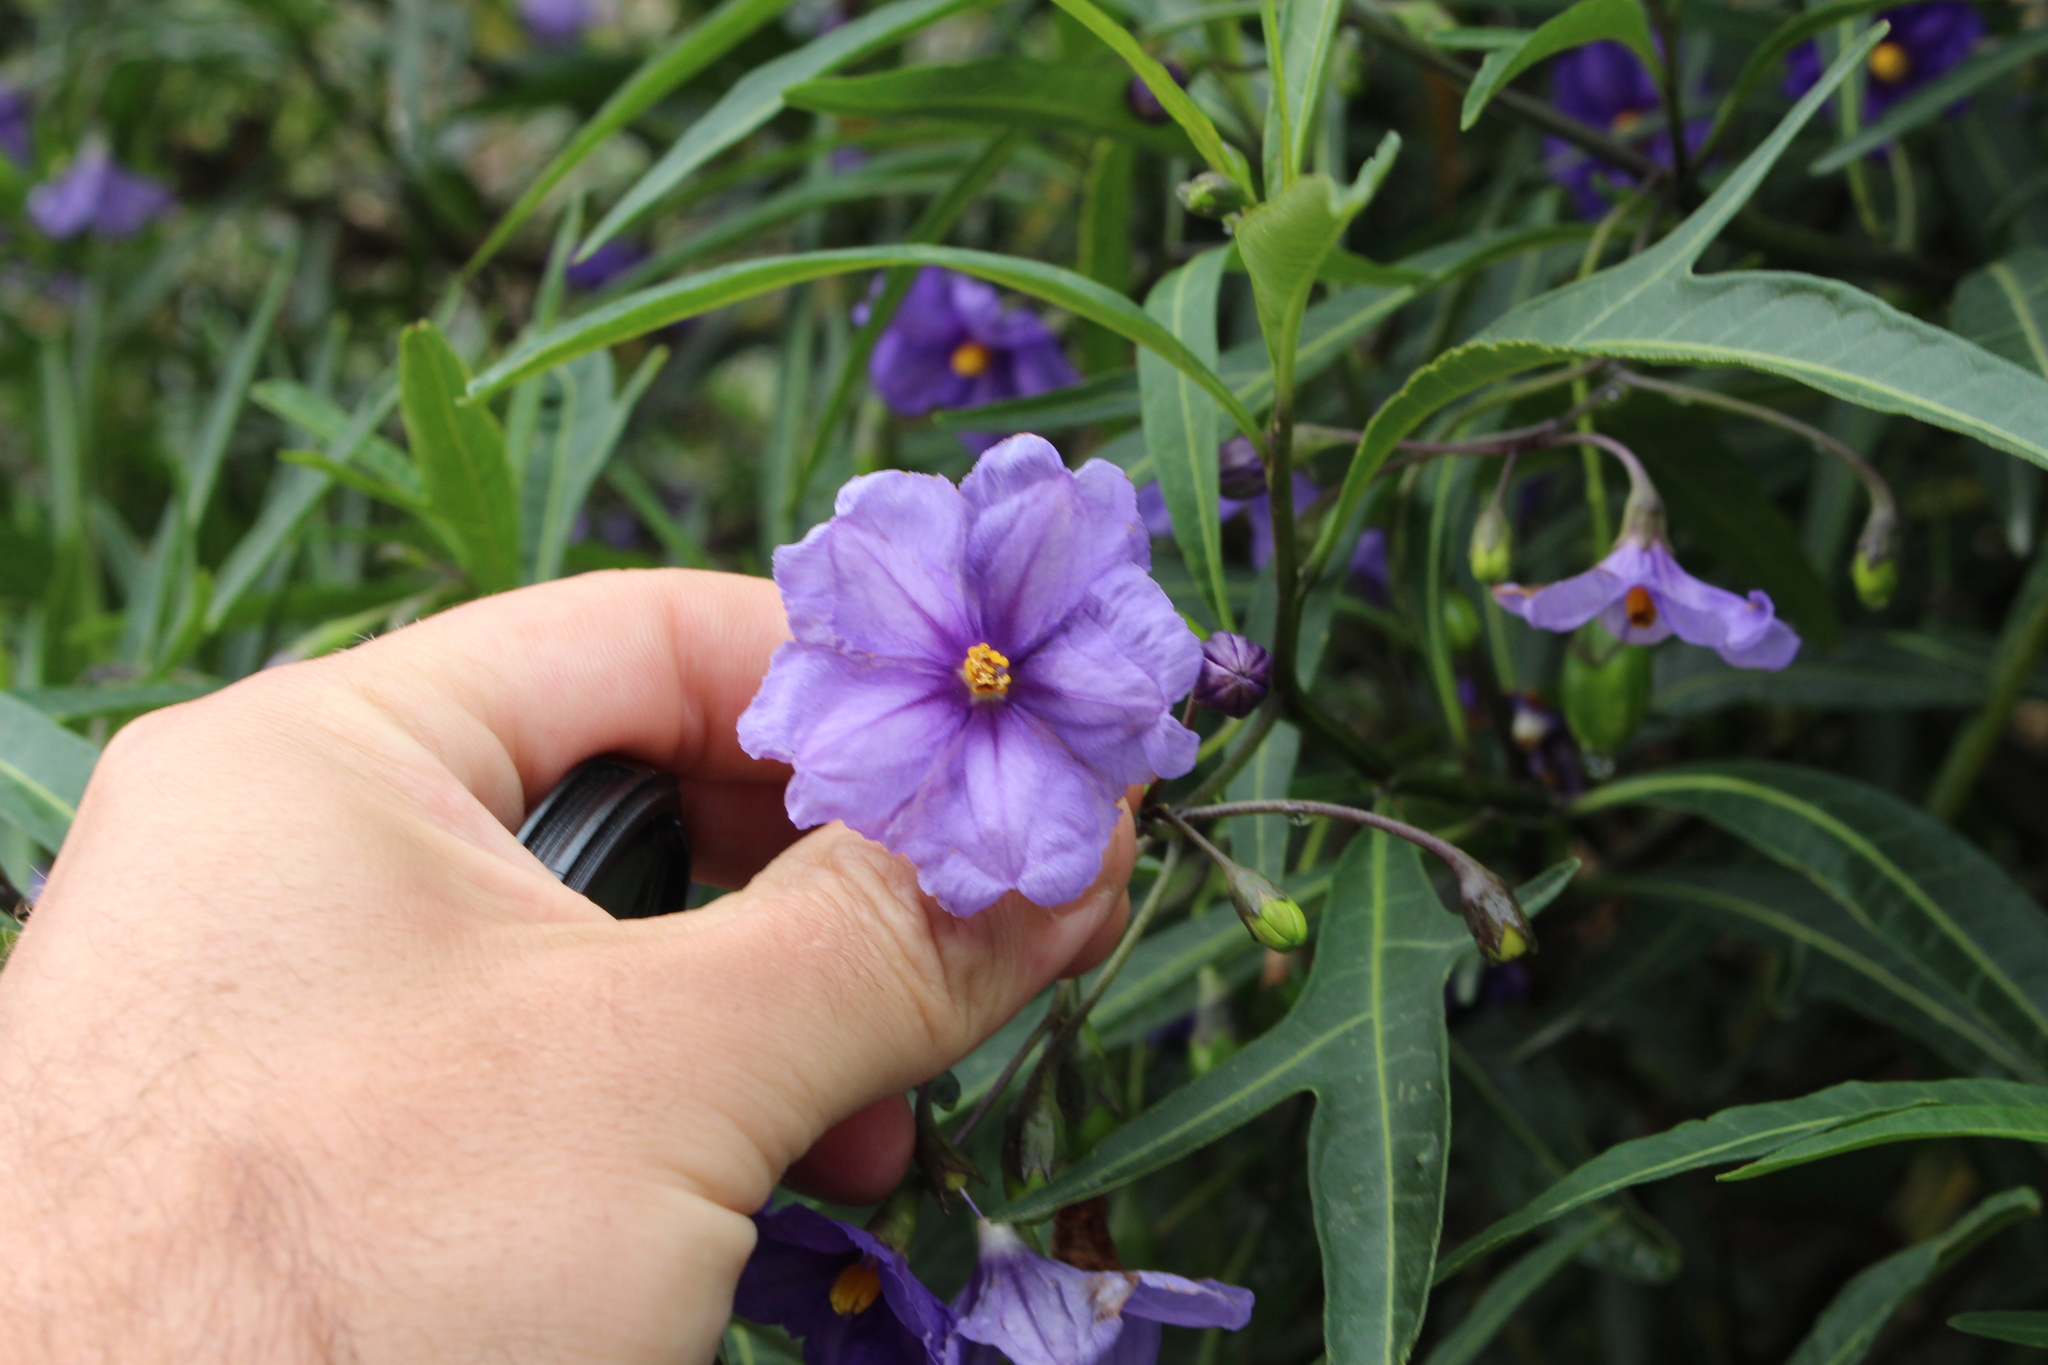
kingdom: Plantae
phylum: Tracheophyta
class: Magnoliopsida
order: Solanales
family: Solanaceae
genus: Solanum
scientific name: Solanum laciniatum
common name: Kangaroo-apple
